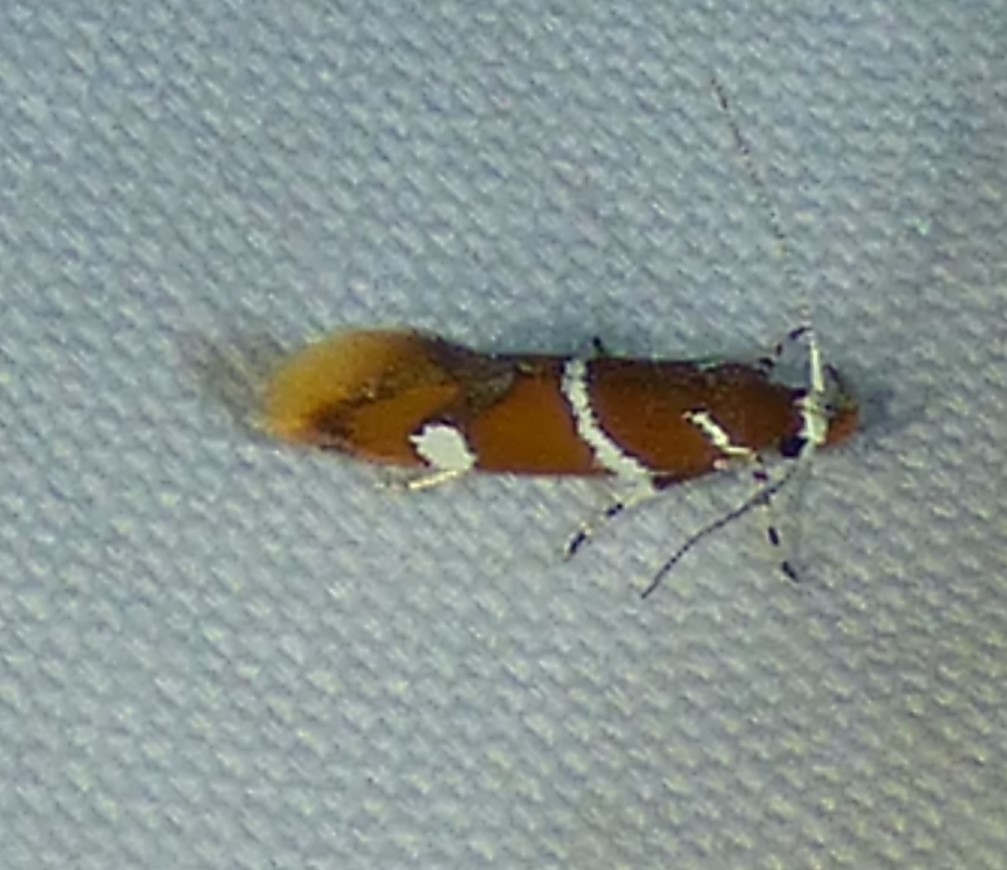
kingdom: Animalia
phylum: Arthropoda
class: Insecta
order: Lepidoptera
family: Oecophoridae
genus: Promalactis
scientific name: Promalactis suzukiella
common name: Moth
